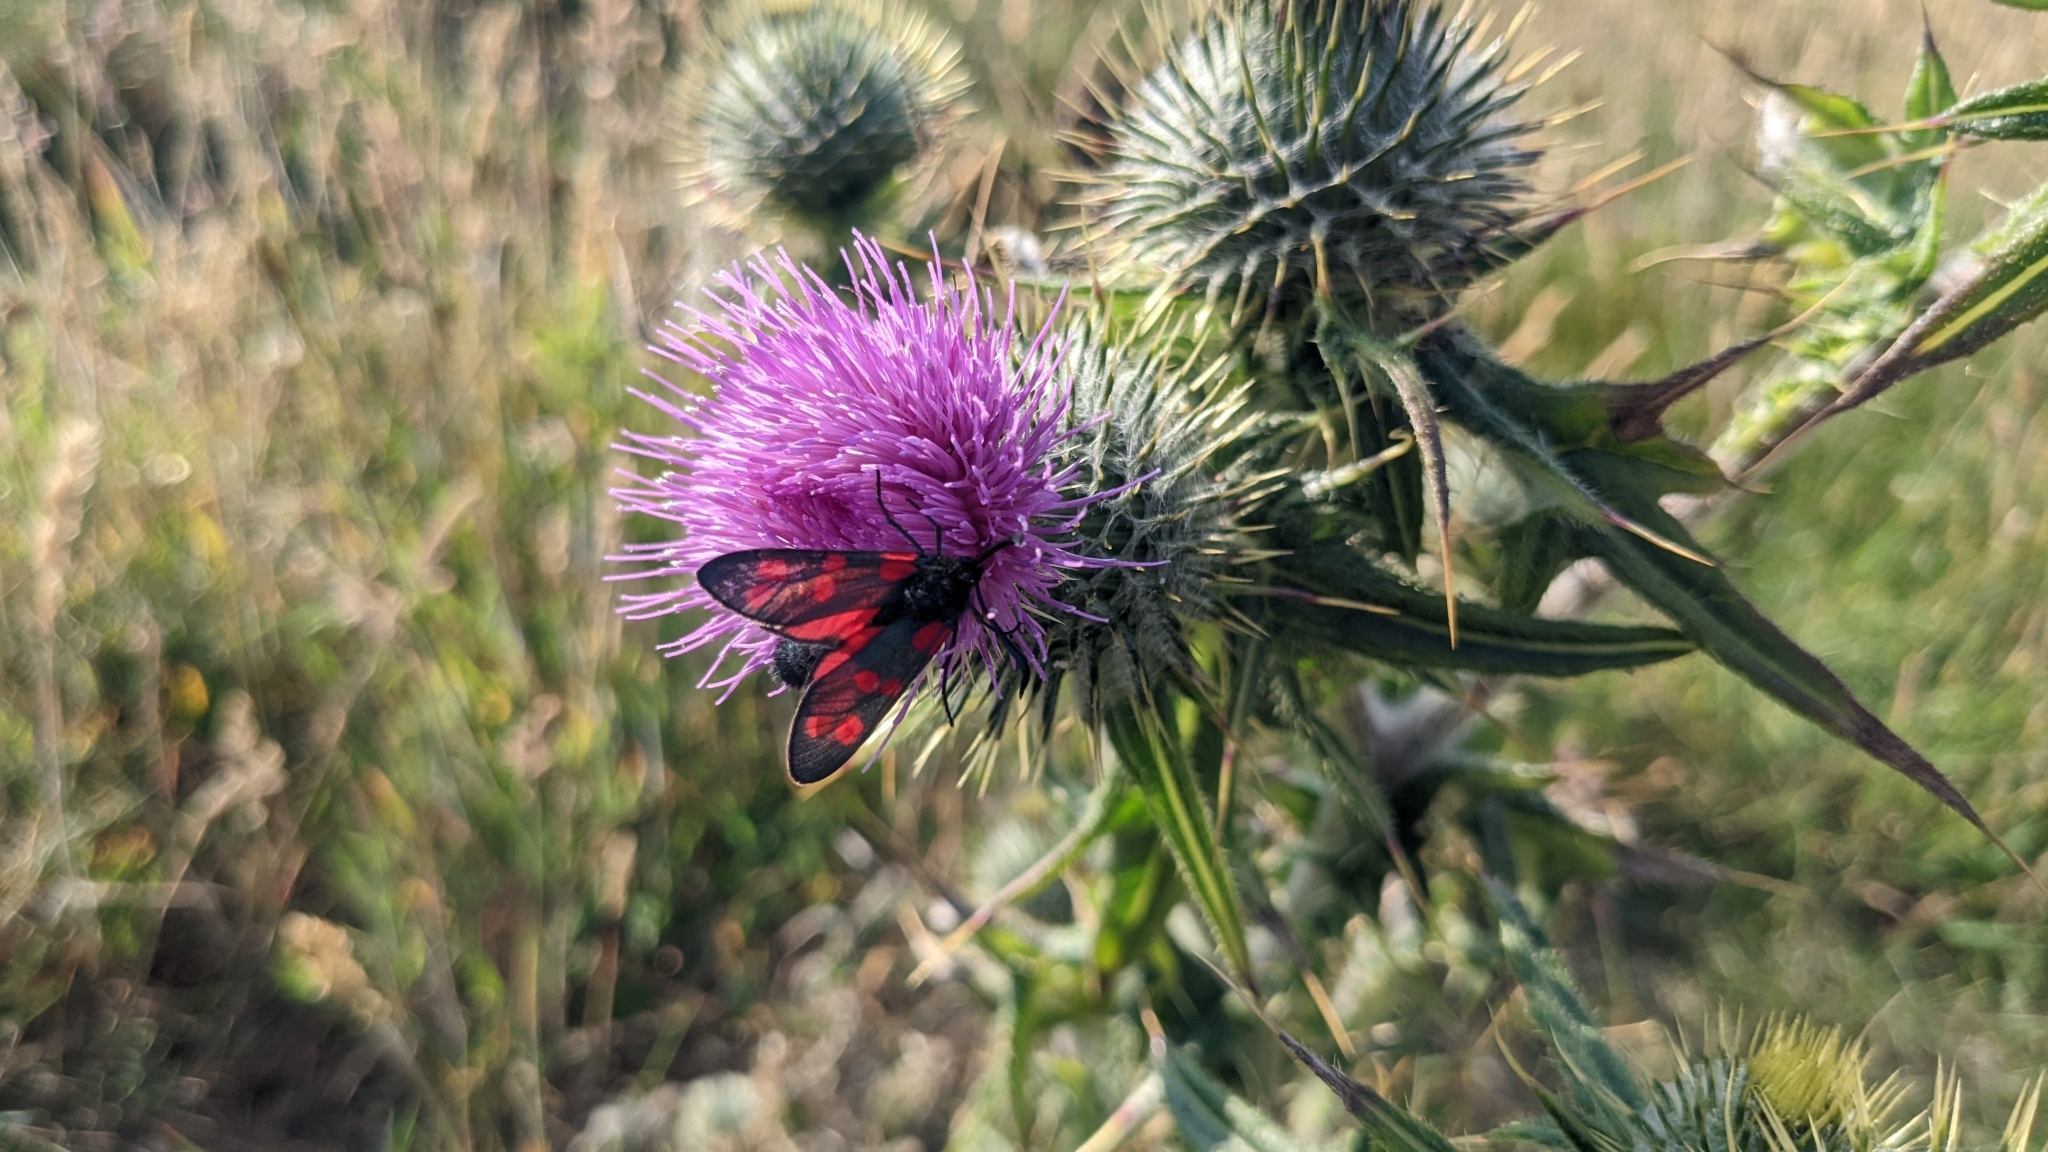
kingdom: Animalia
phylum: Arthropoda
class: Insecta
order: Lepidoptera
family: Zygaenidae
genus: Zygaena
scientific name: Zygaena filipendulae
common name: Six-spot burnet
